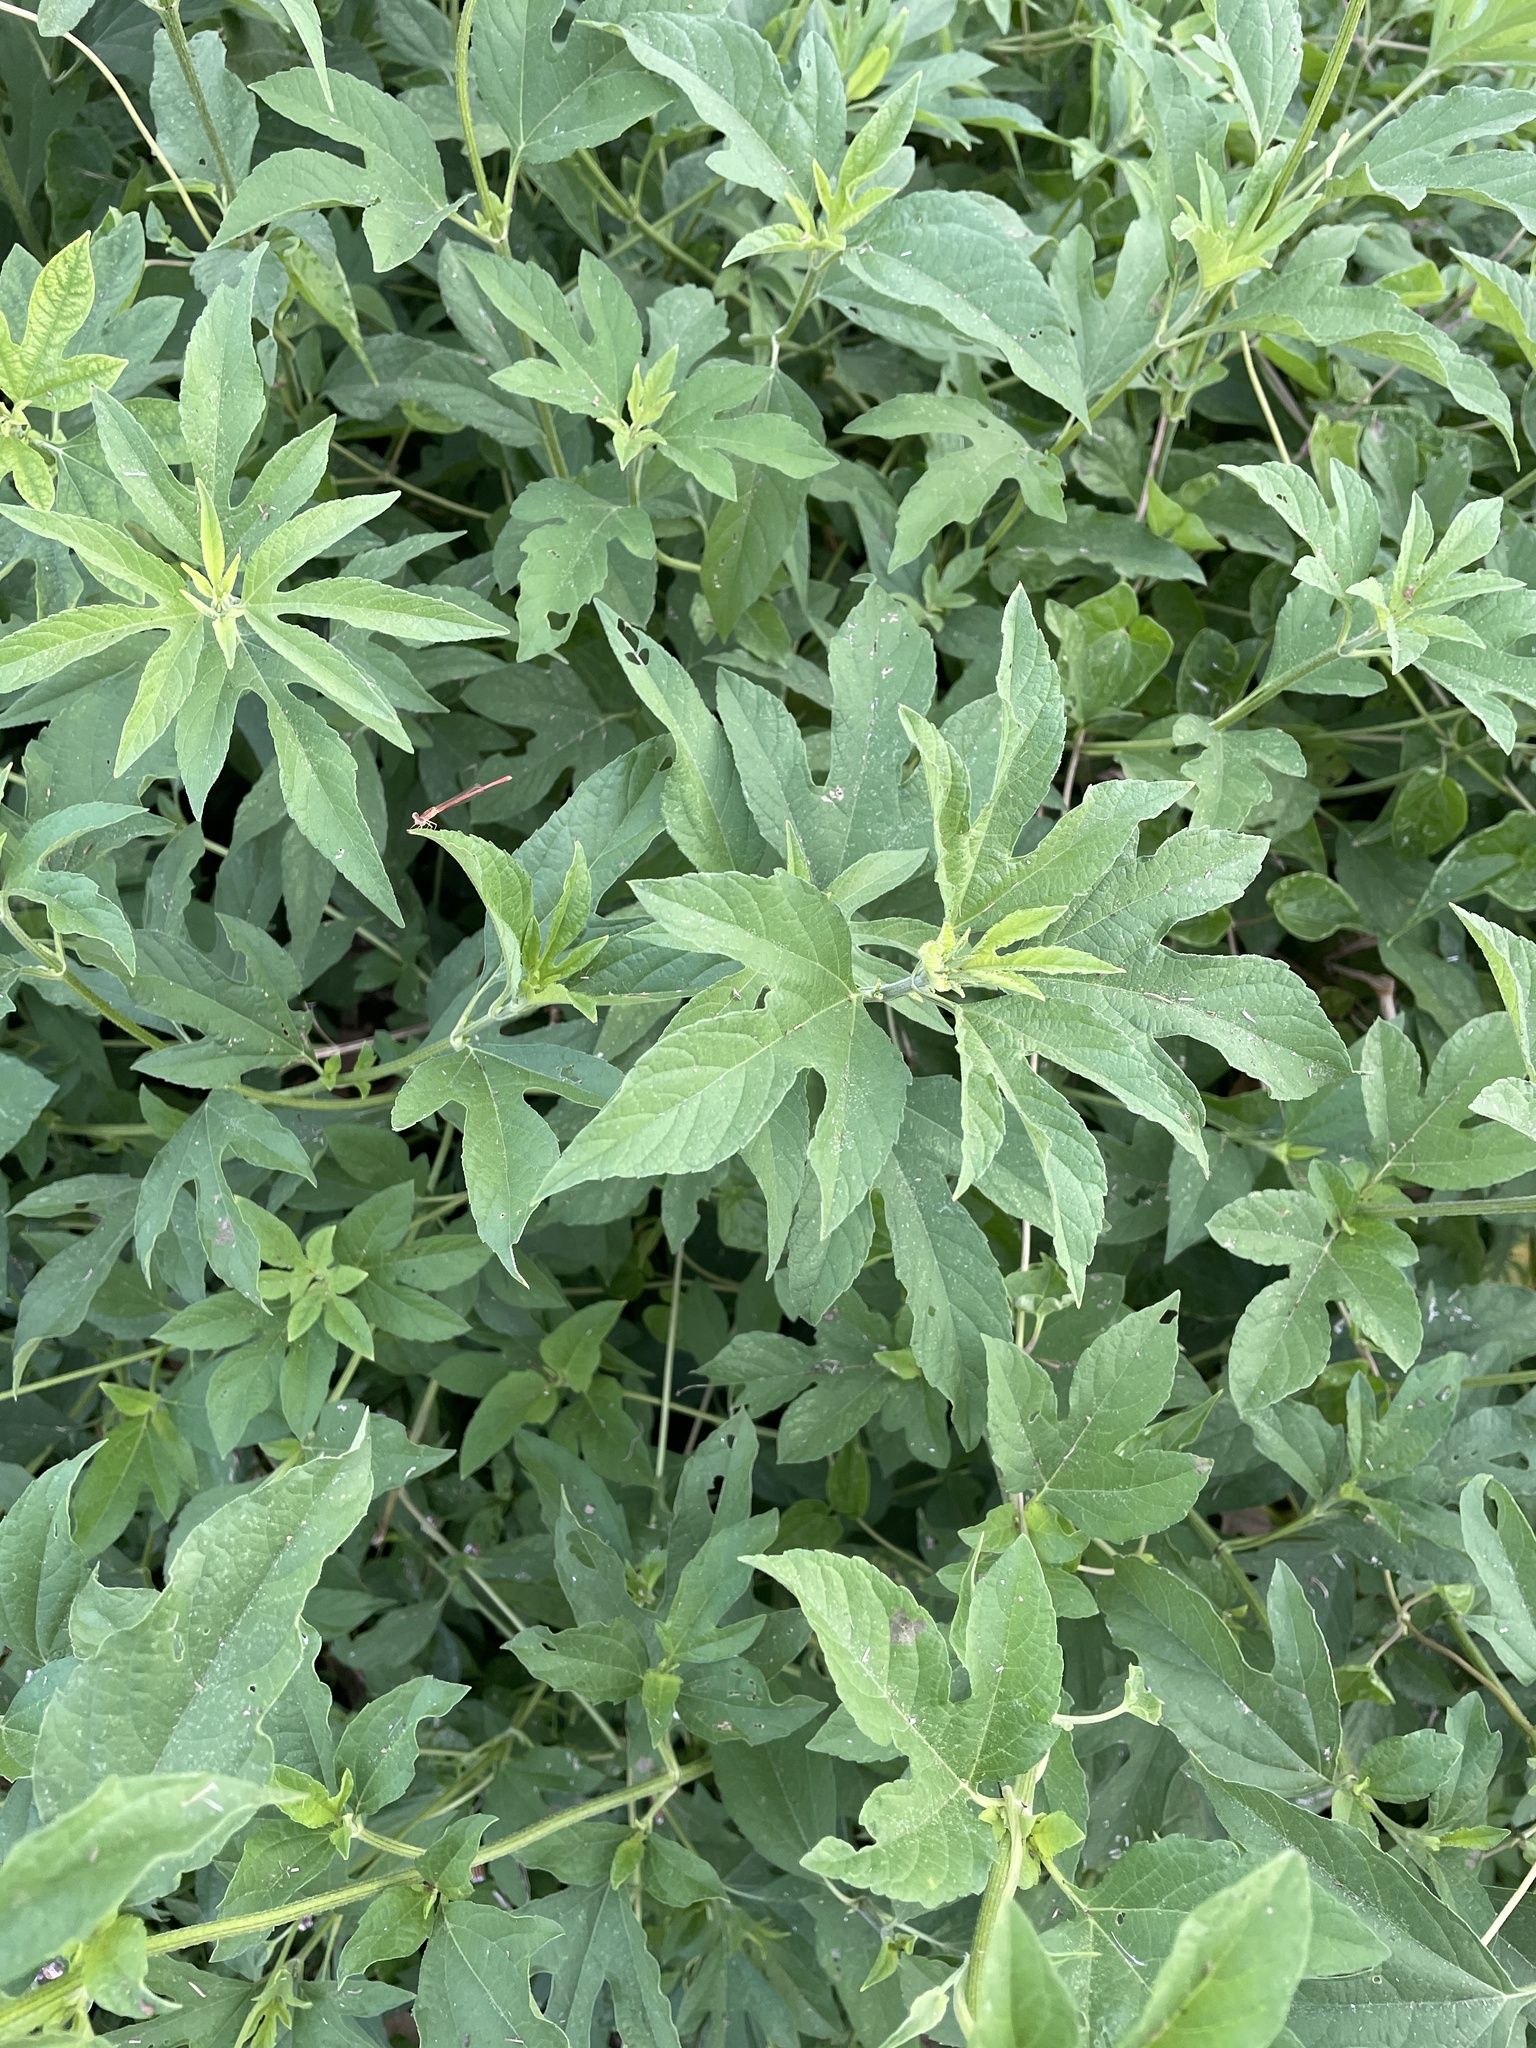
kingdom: Plantae
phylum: Tracheophyta
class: Magnoliopsida
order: Asterales
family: Asteraceae
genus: Ambrosia
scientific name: Ambrosia trifida
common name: Giant ragweed
